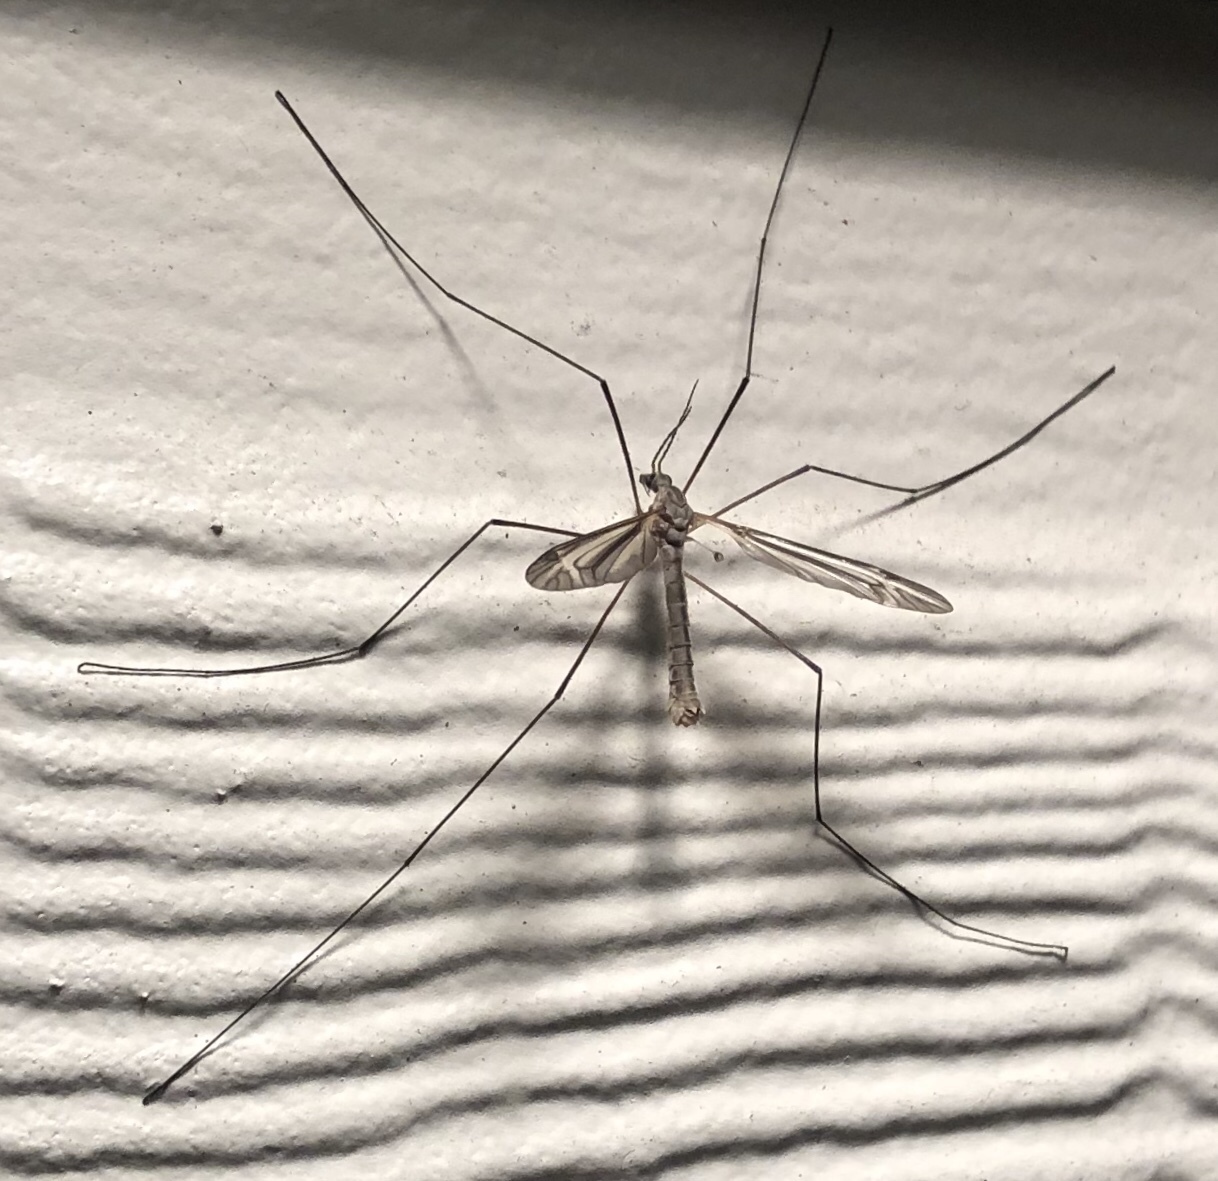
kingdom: Animalia
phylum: Arthropoda
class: Insecta
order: Diptera
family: Tipulidae
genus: Tipula
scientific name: Tipula furca
